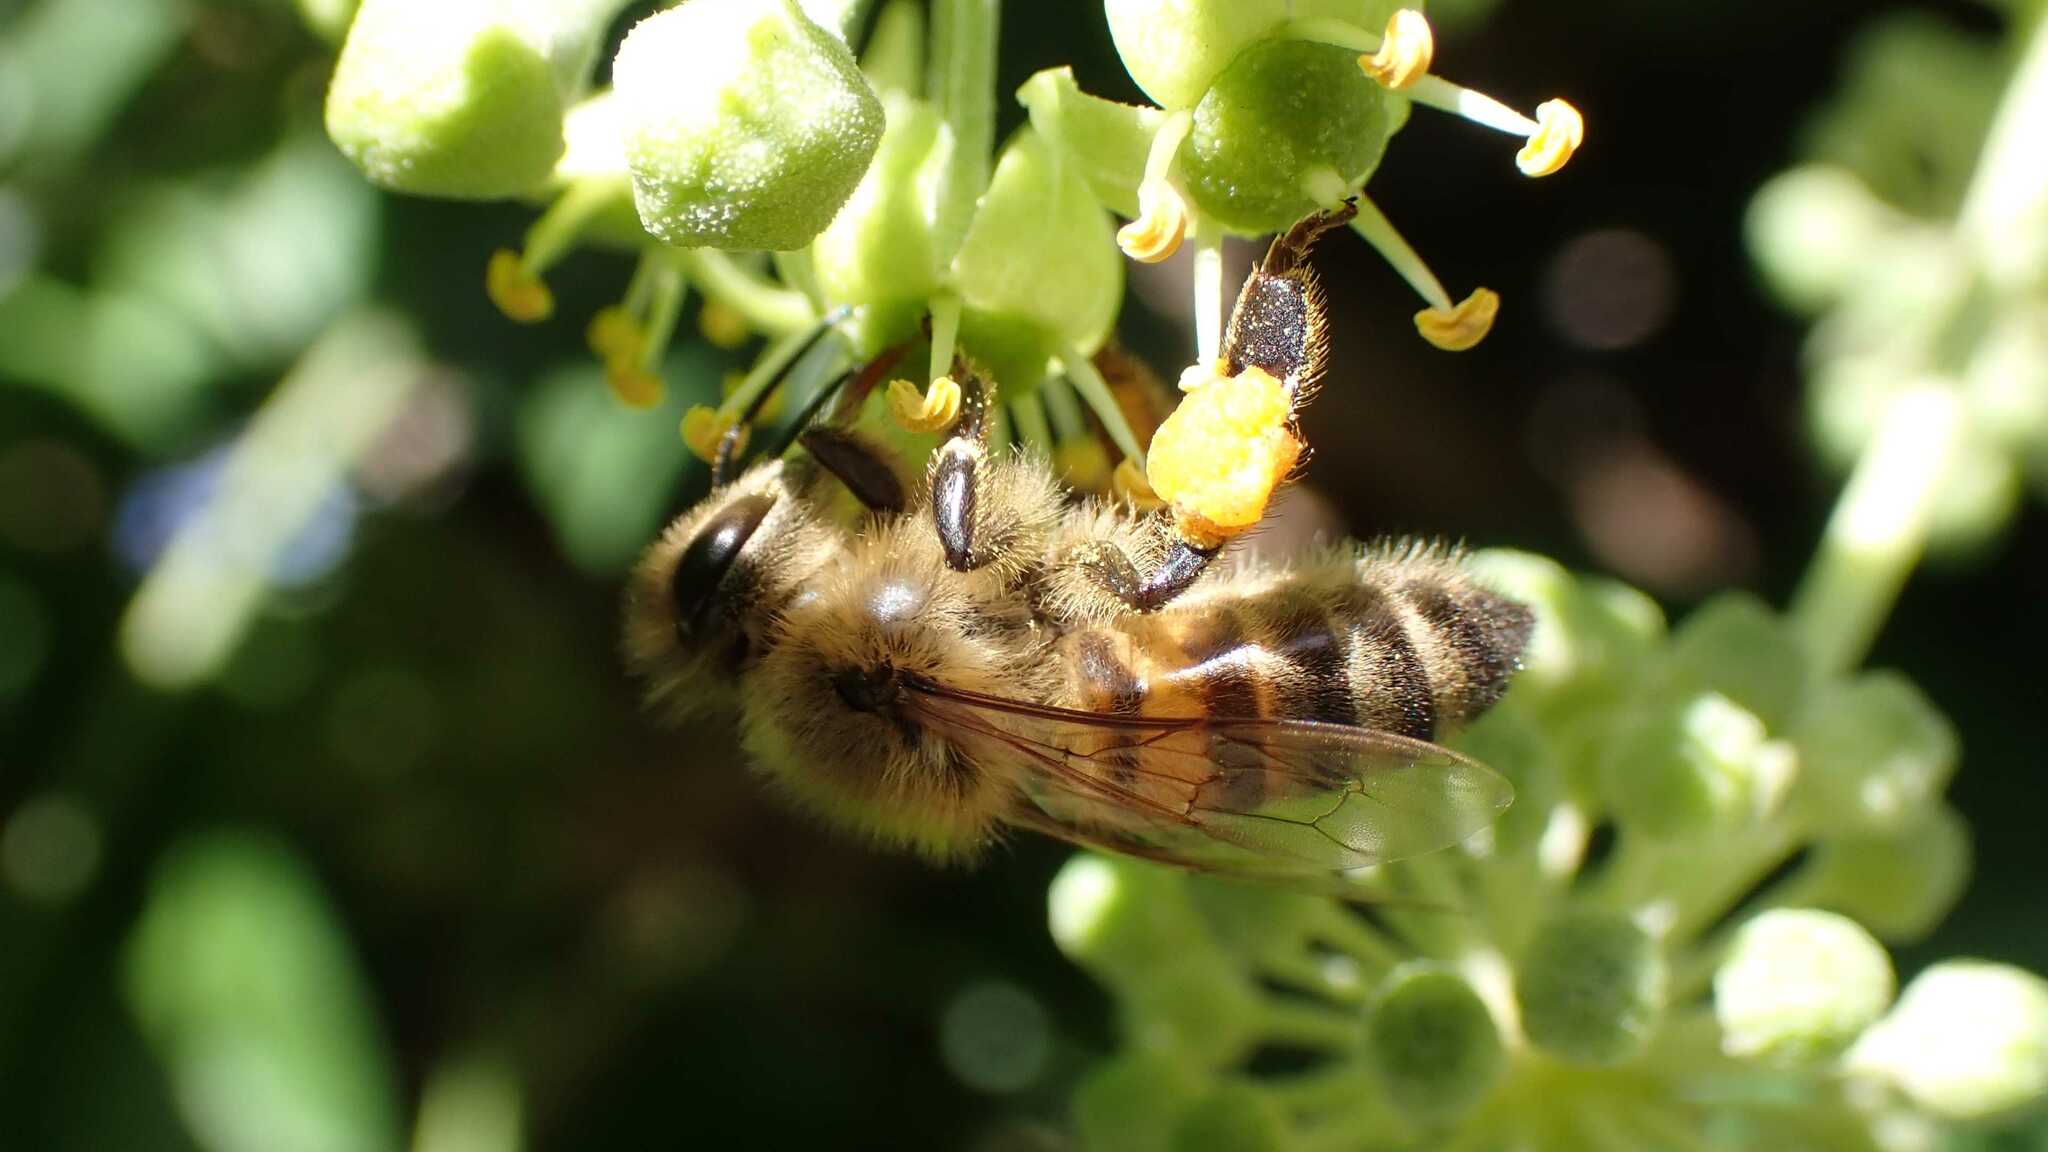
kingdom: Animalia
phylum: Arthropoda
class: Insecta
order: Hymenoptera
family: Apidae
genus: Apis
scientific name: Apis mellifera
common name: Honey bee
